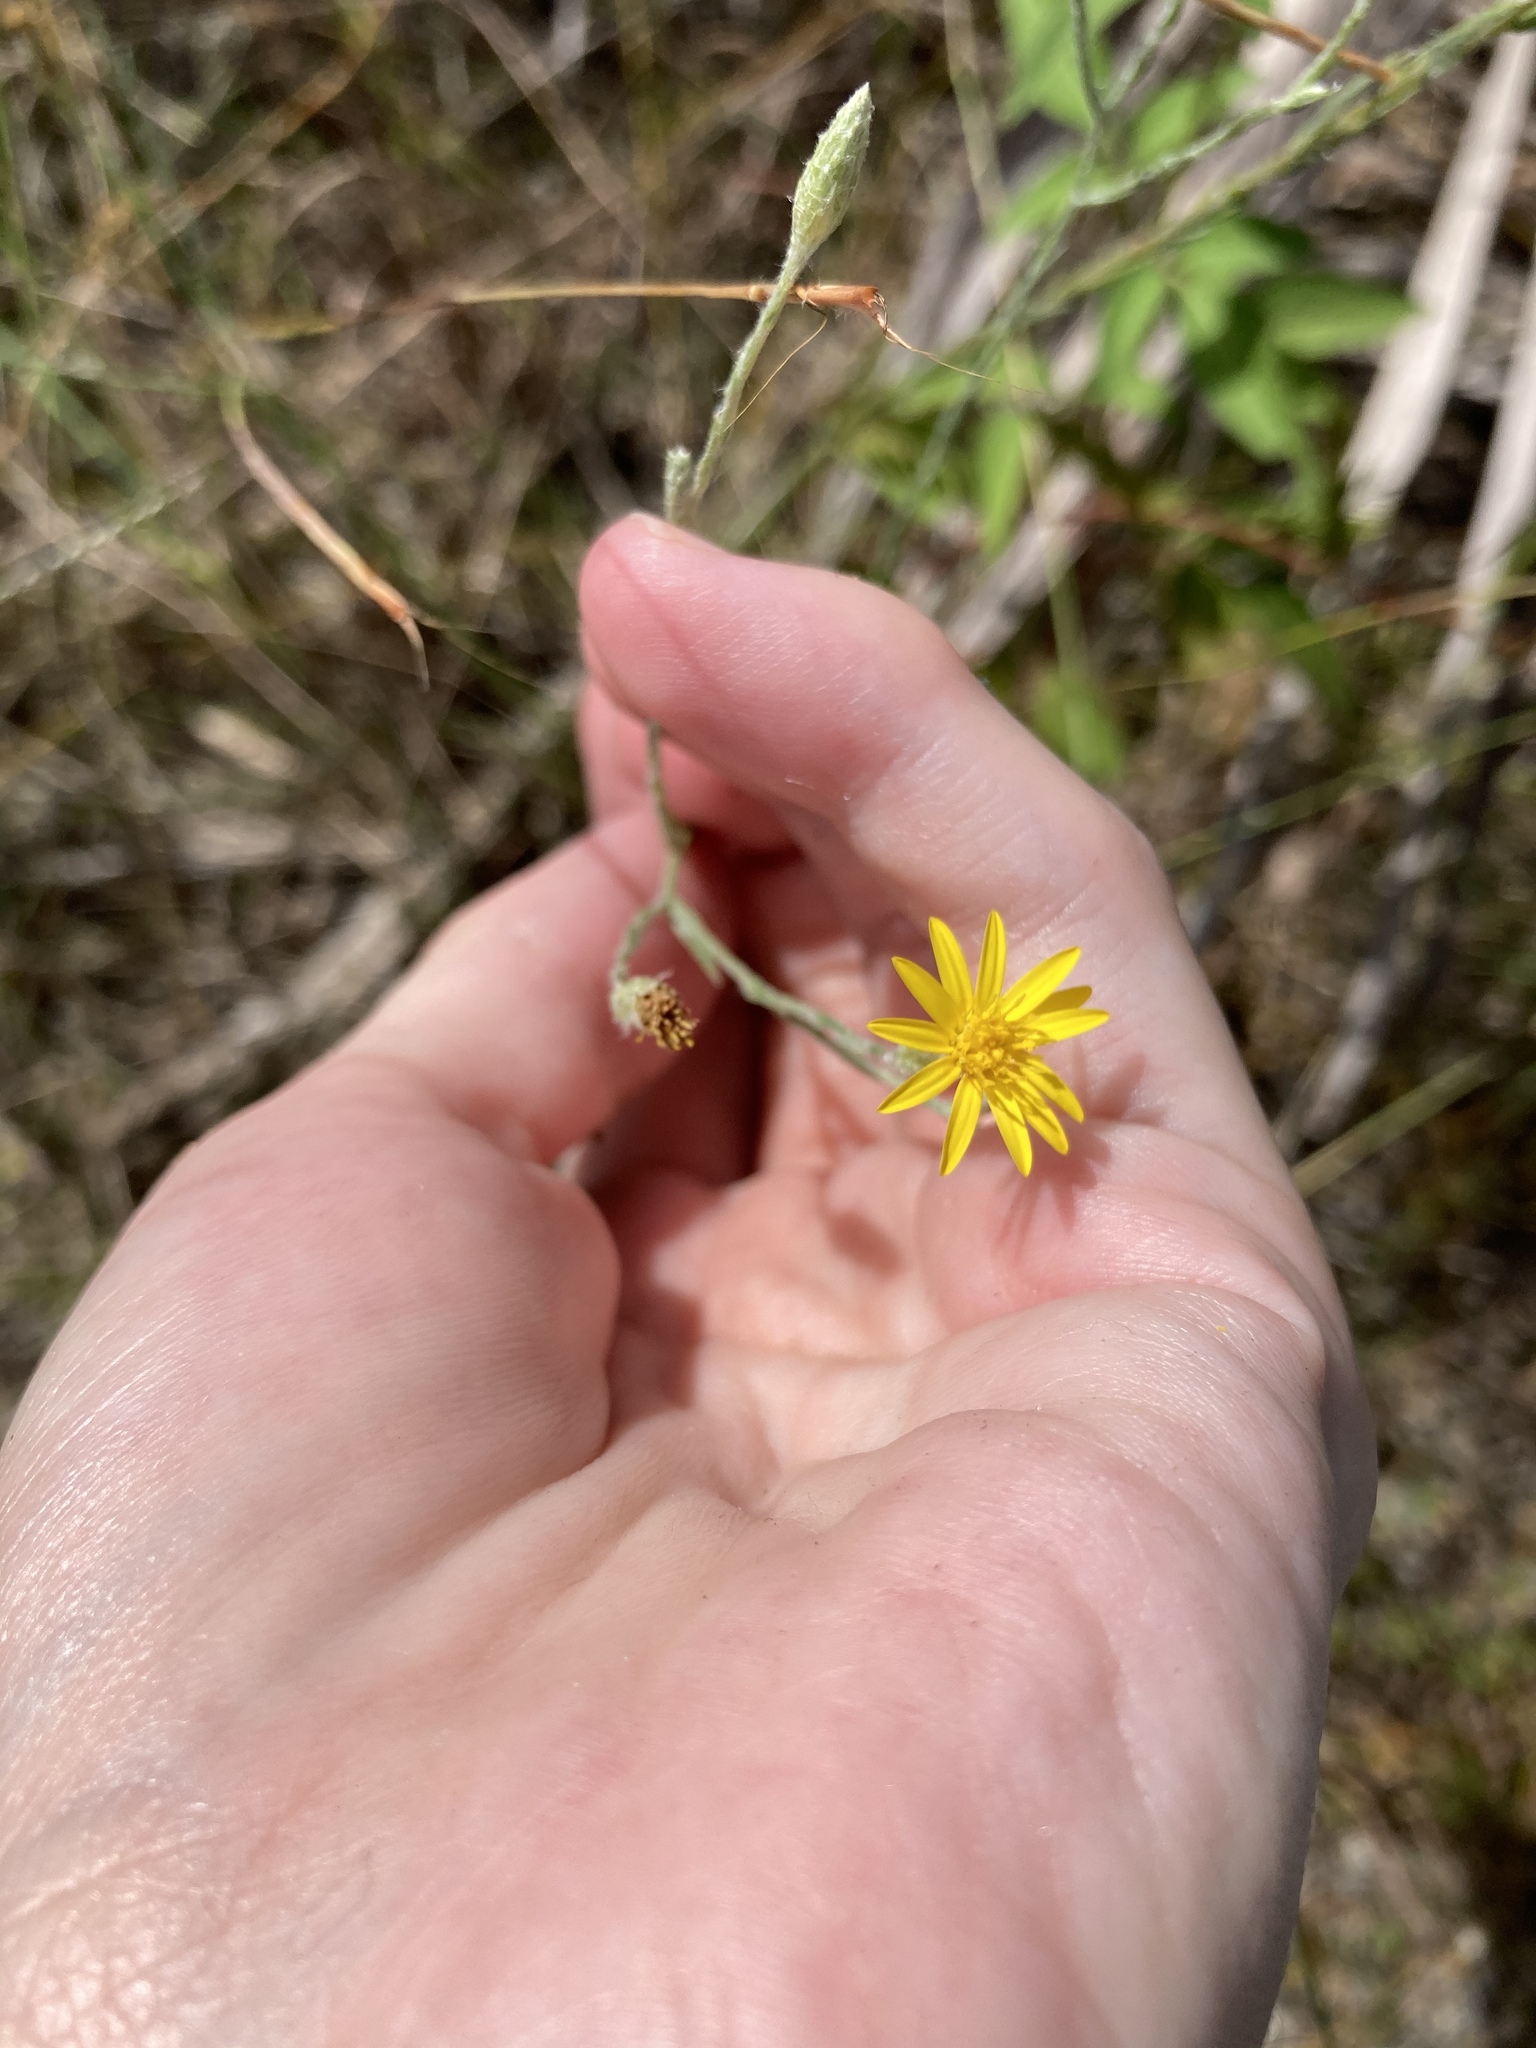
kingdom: Plantae
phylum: Tracheophyta
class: Magnoliopsida
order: Asterales
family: Asteraceae
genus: Pityopsis
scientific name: Pityopsis graminifolia
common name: Grass-leaf golden-aster
